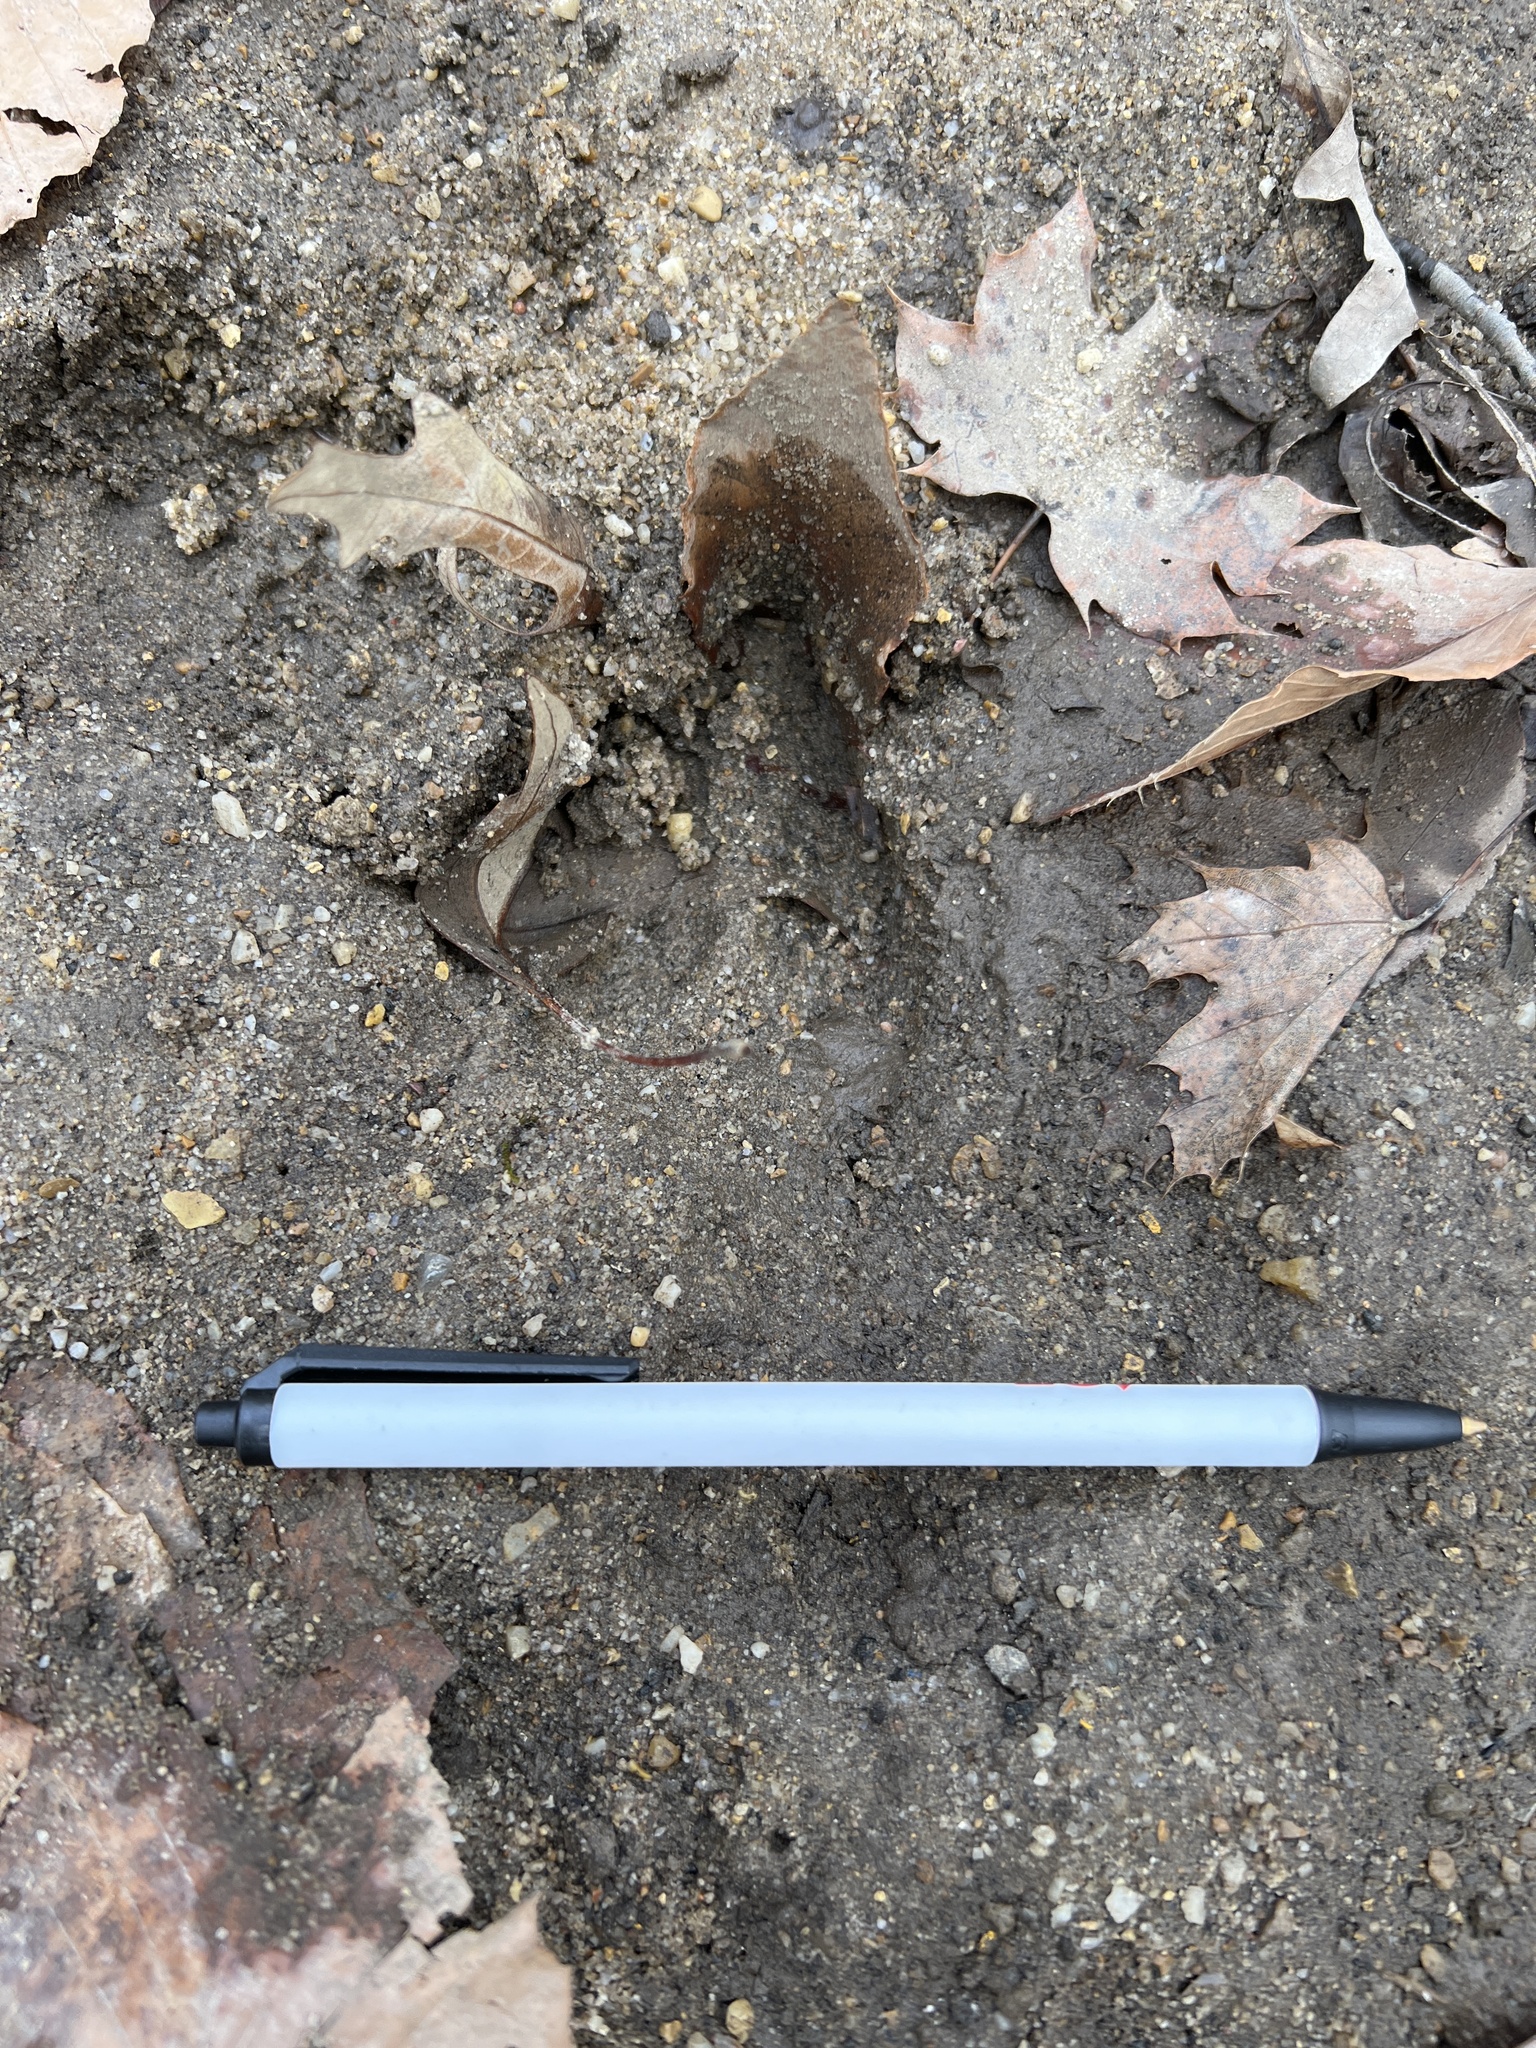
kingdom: Animalia
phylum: Chordata
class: Mammalia
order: Artiodactyla
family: Cervidae
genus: Odocoileus
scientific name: Odocoileus virginianus
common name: White-tailed deer
